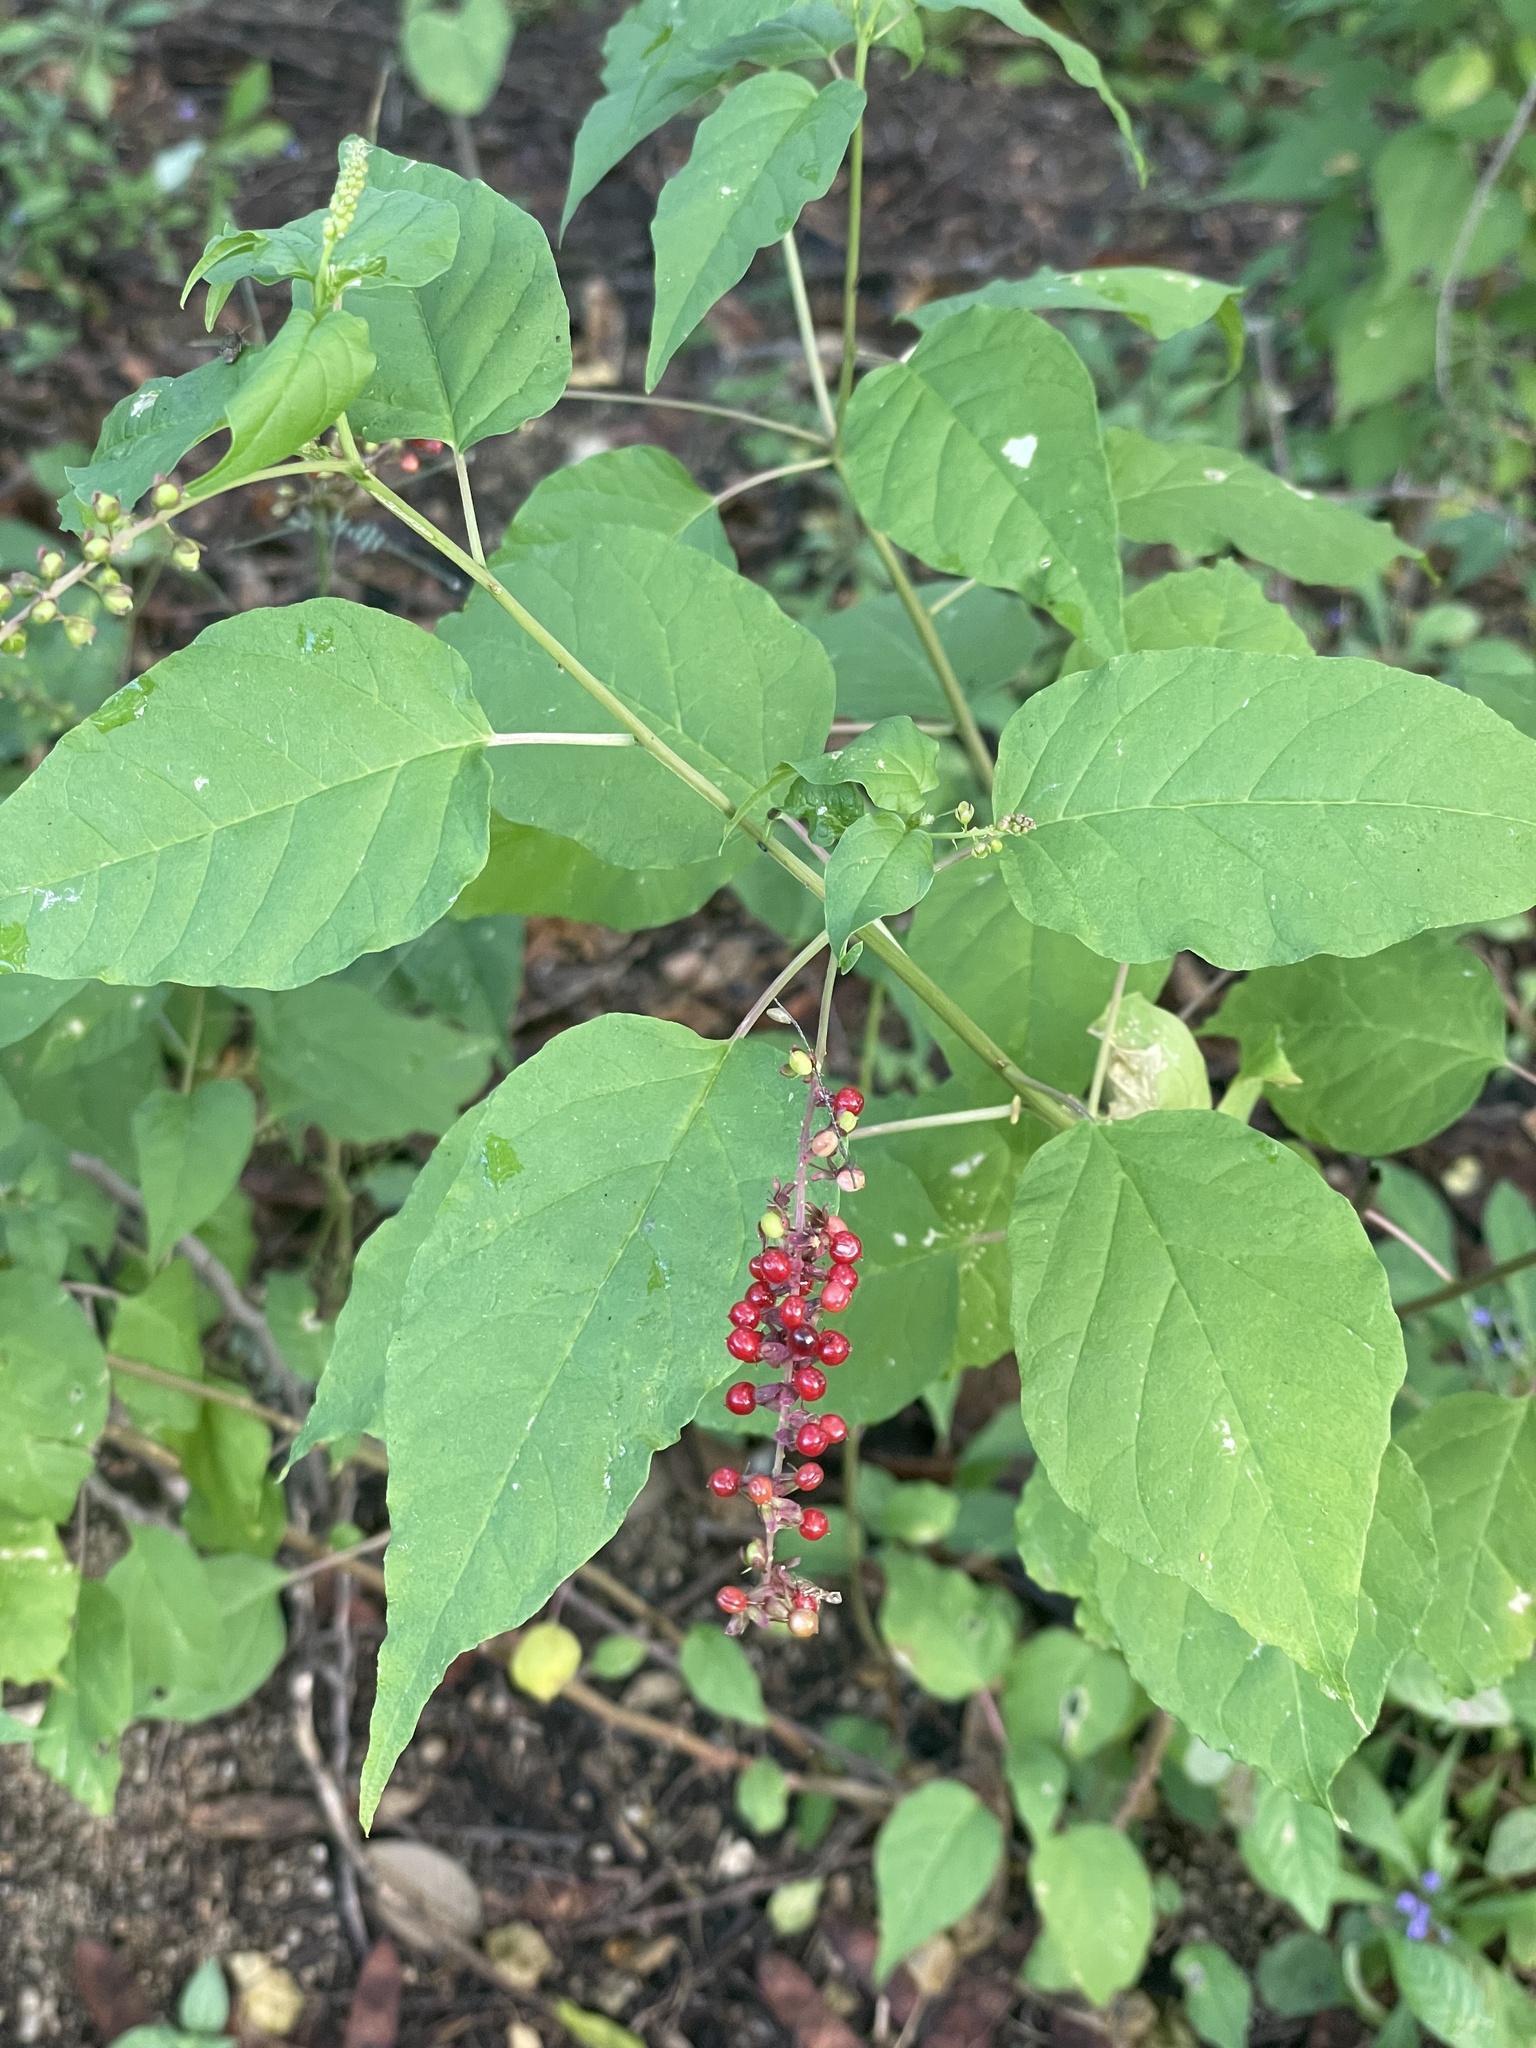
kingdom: Plantae
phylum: Tracheophyta
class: Magnoliopsida
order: Caryophyllales
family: Phytolaccaceae
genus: Rivina
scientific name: Rivina humilis
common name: Rougeplant
